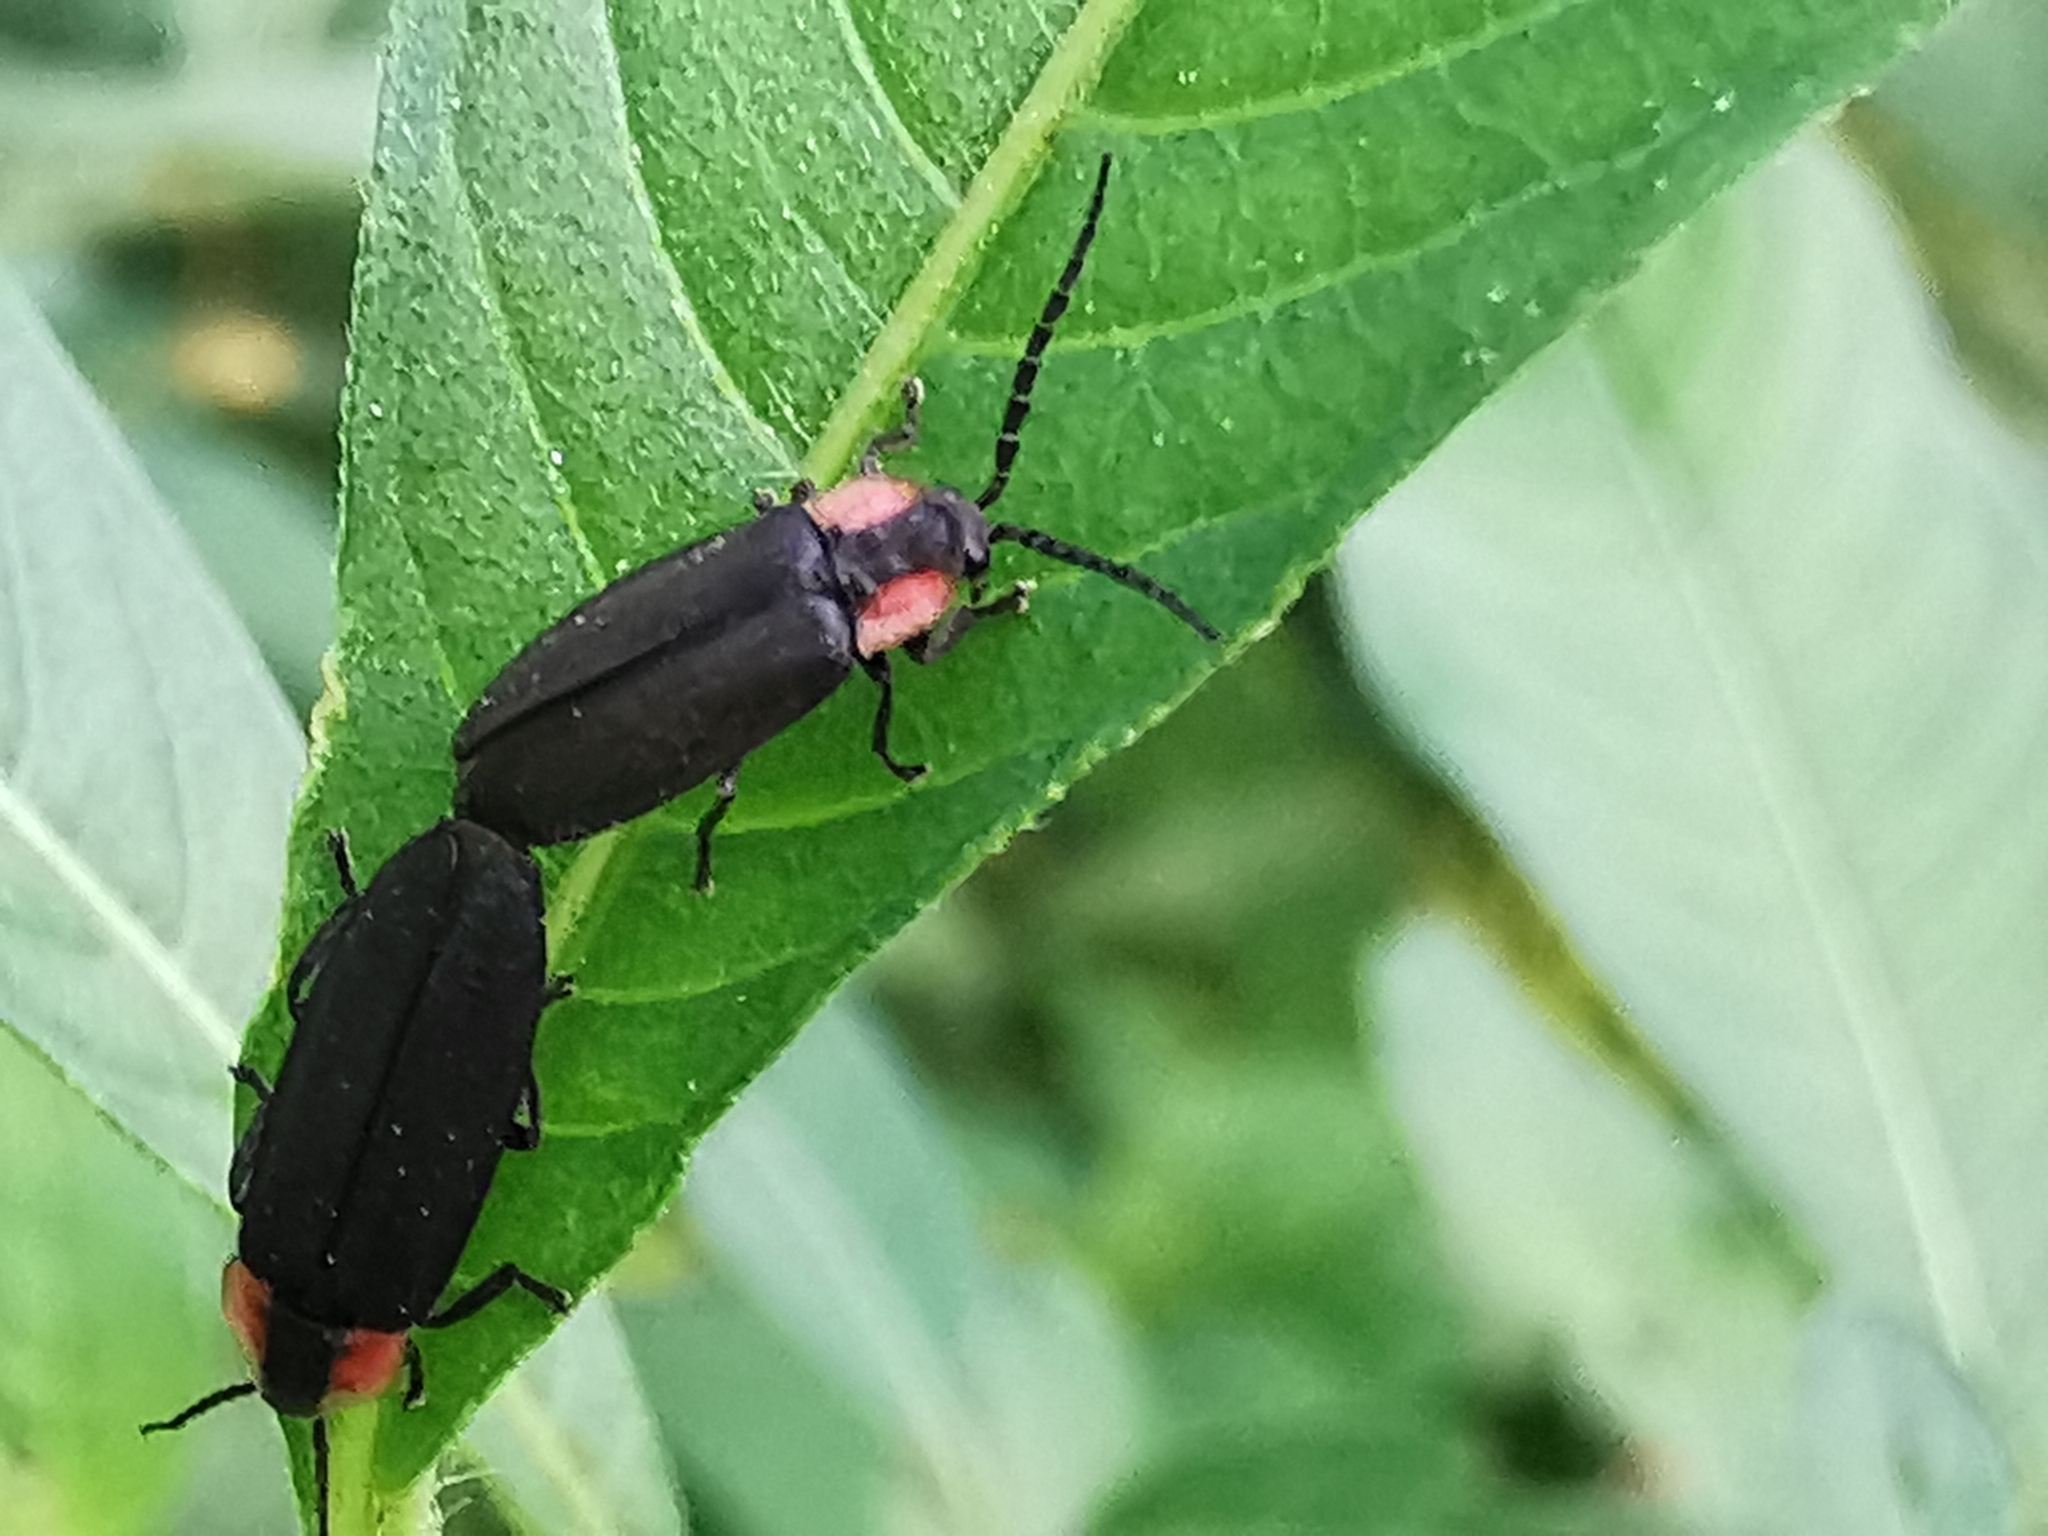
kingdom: Animalia
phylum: Arthropoda
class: Insecta
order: Coleoptera
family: Lampyridae
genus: Pyropyga
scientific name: Pyropyga minuta
